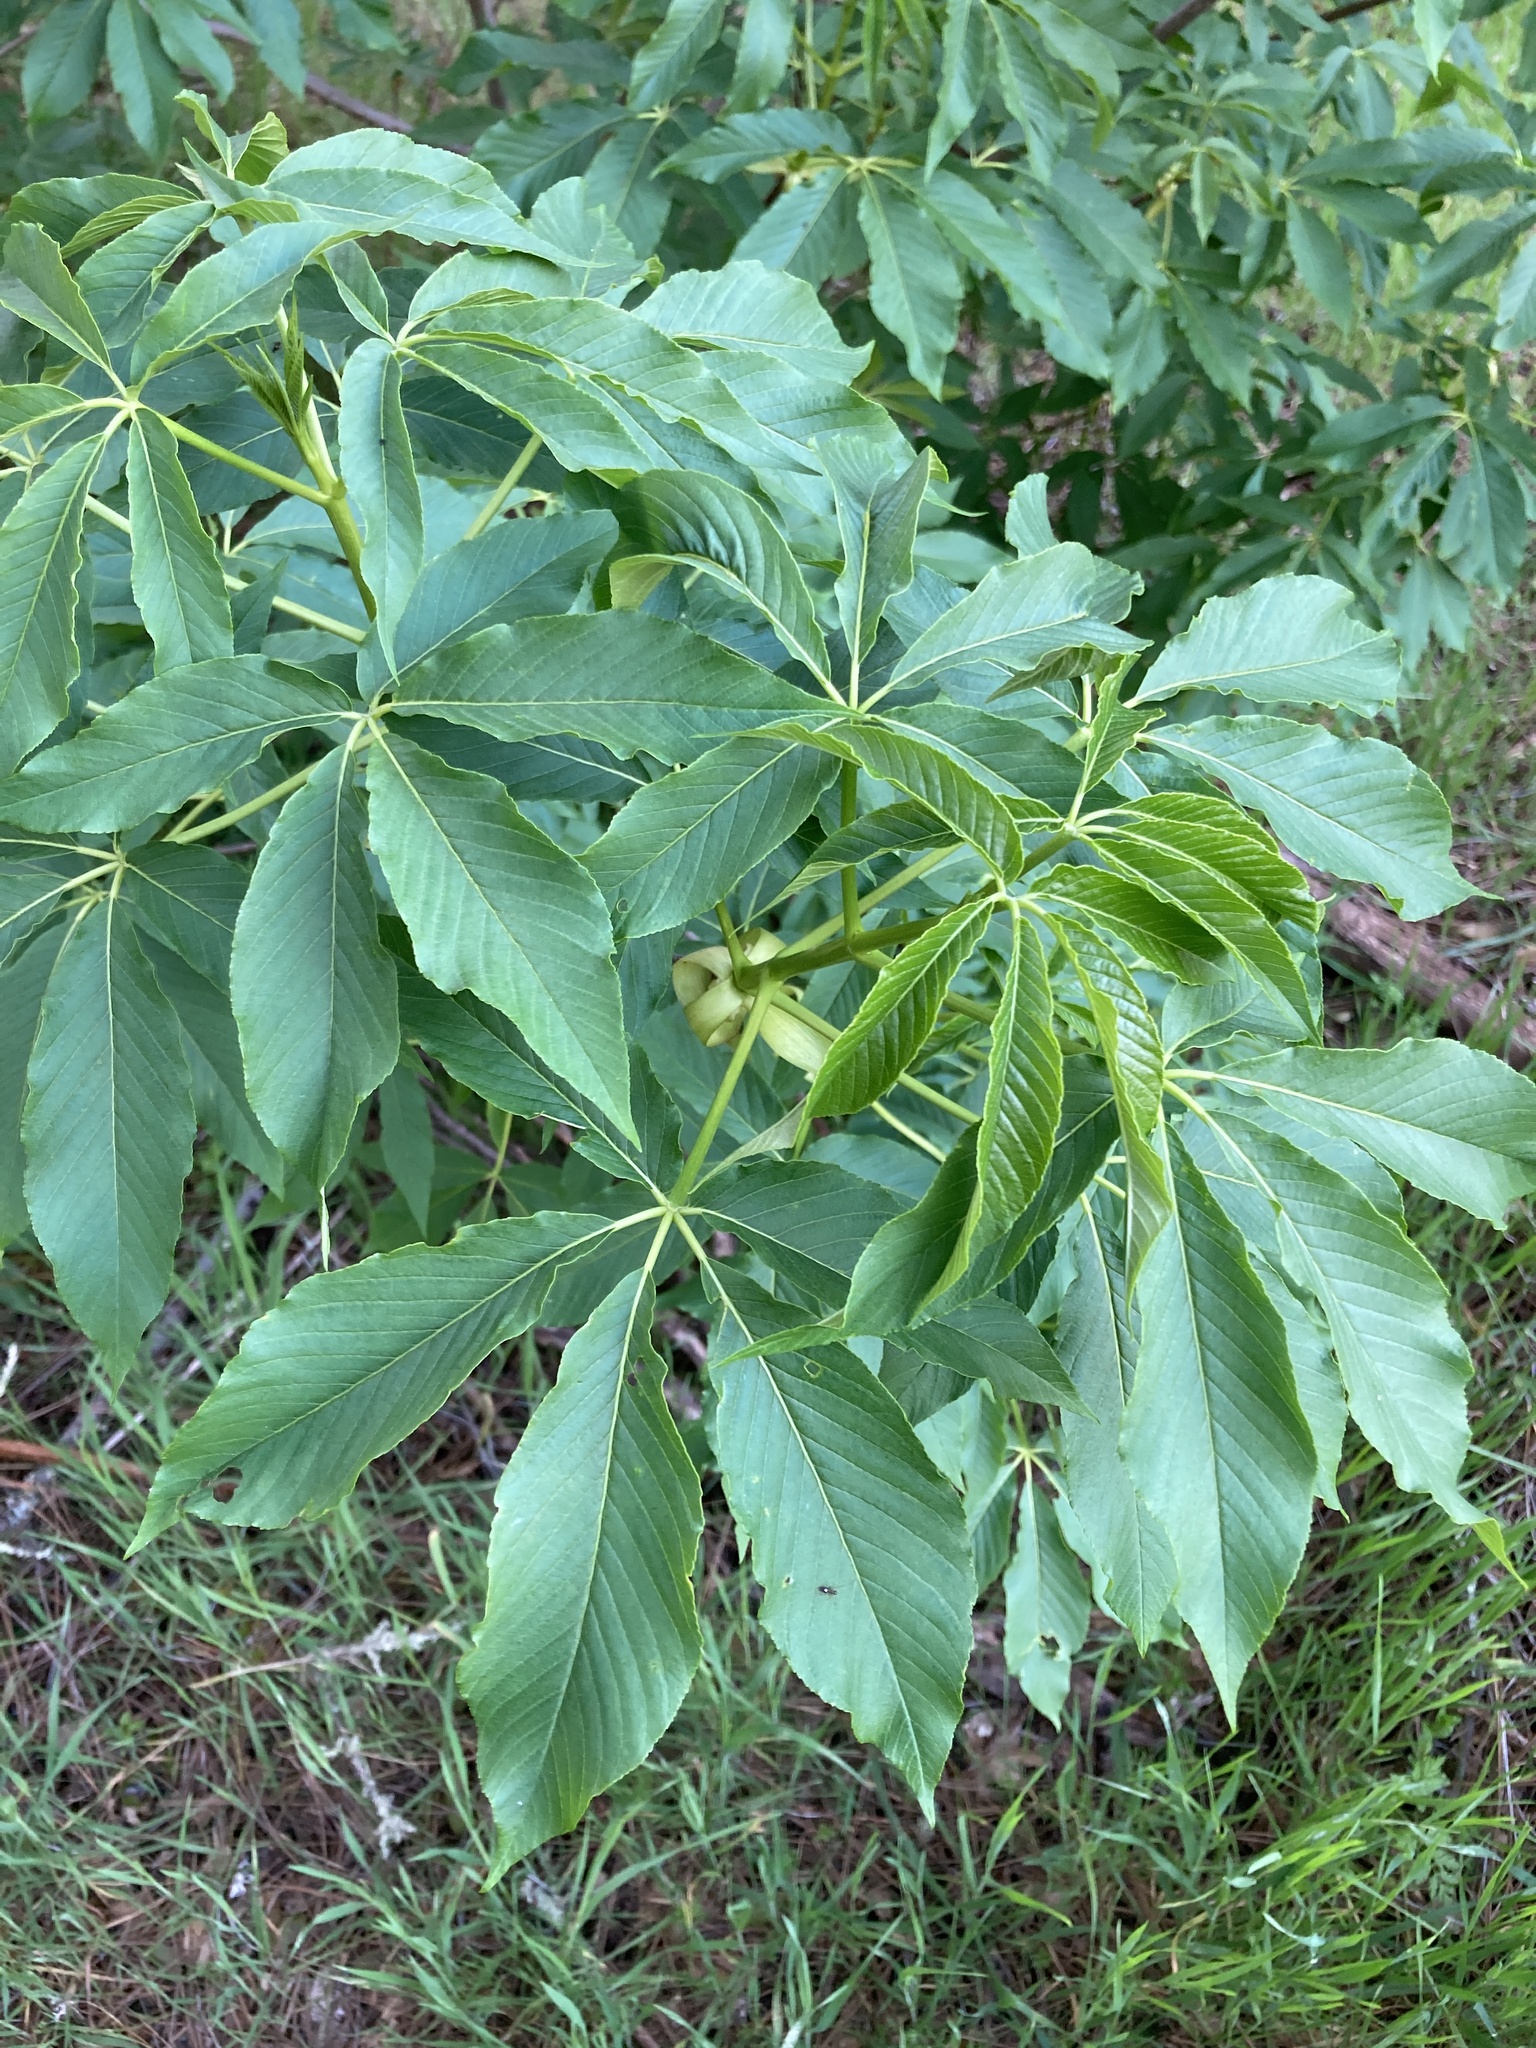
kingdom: Plantae
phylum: Tracheophyta
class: Magnoliopsida
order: Sapindales
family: Sapindaceae
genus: Aesculus
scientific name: Aesculus californica
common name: California buckeye
